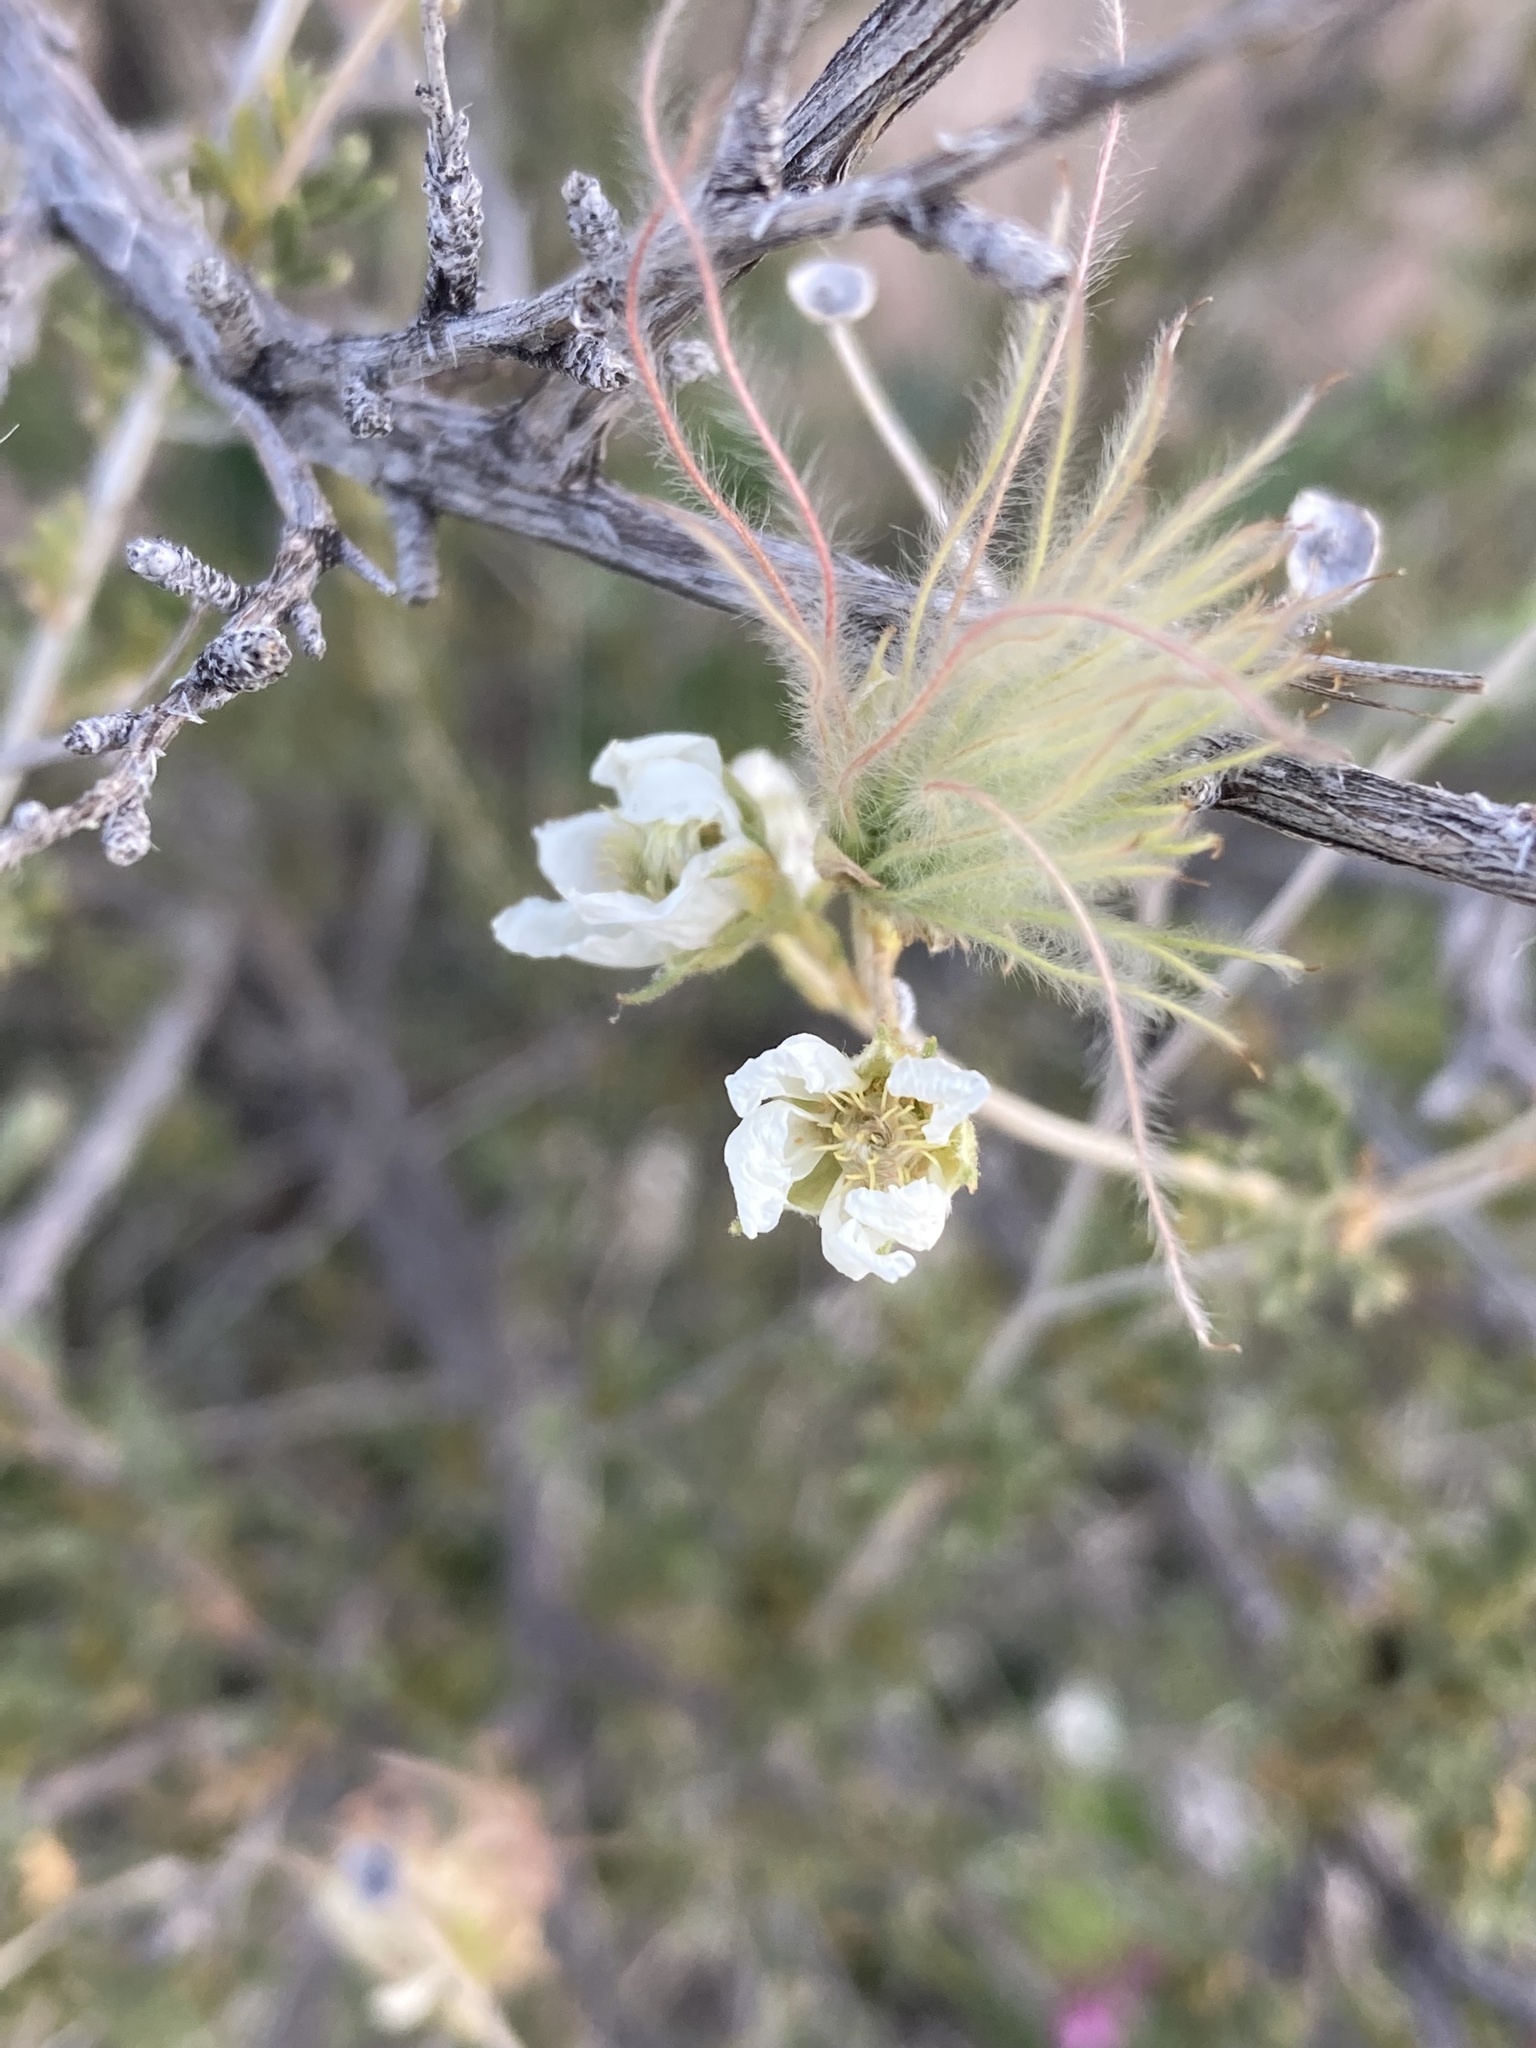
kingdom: Plantae
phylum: Tracheophyta
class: Magnoliopsida
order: Rosales
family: Rosaceae
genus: Fallugia
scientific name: Fallugia paradoxa
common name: Apache-plume
